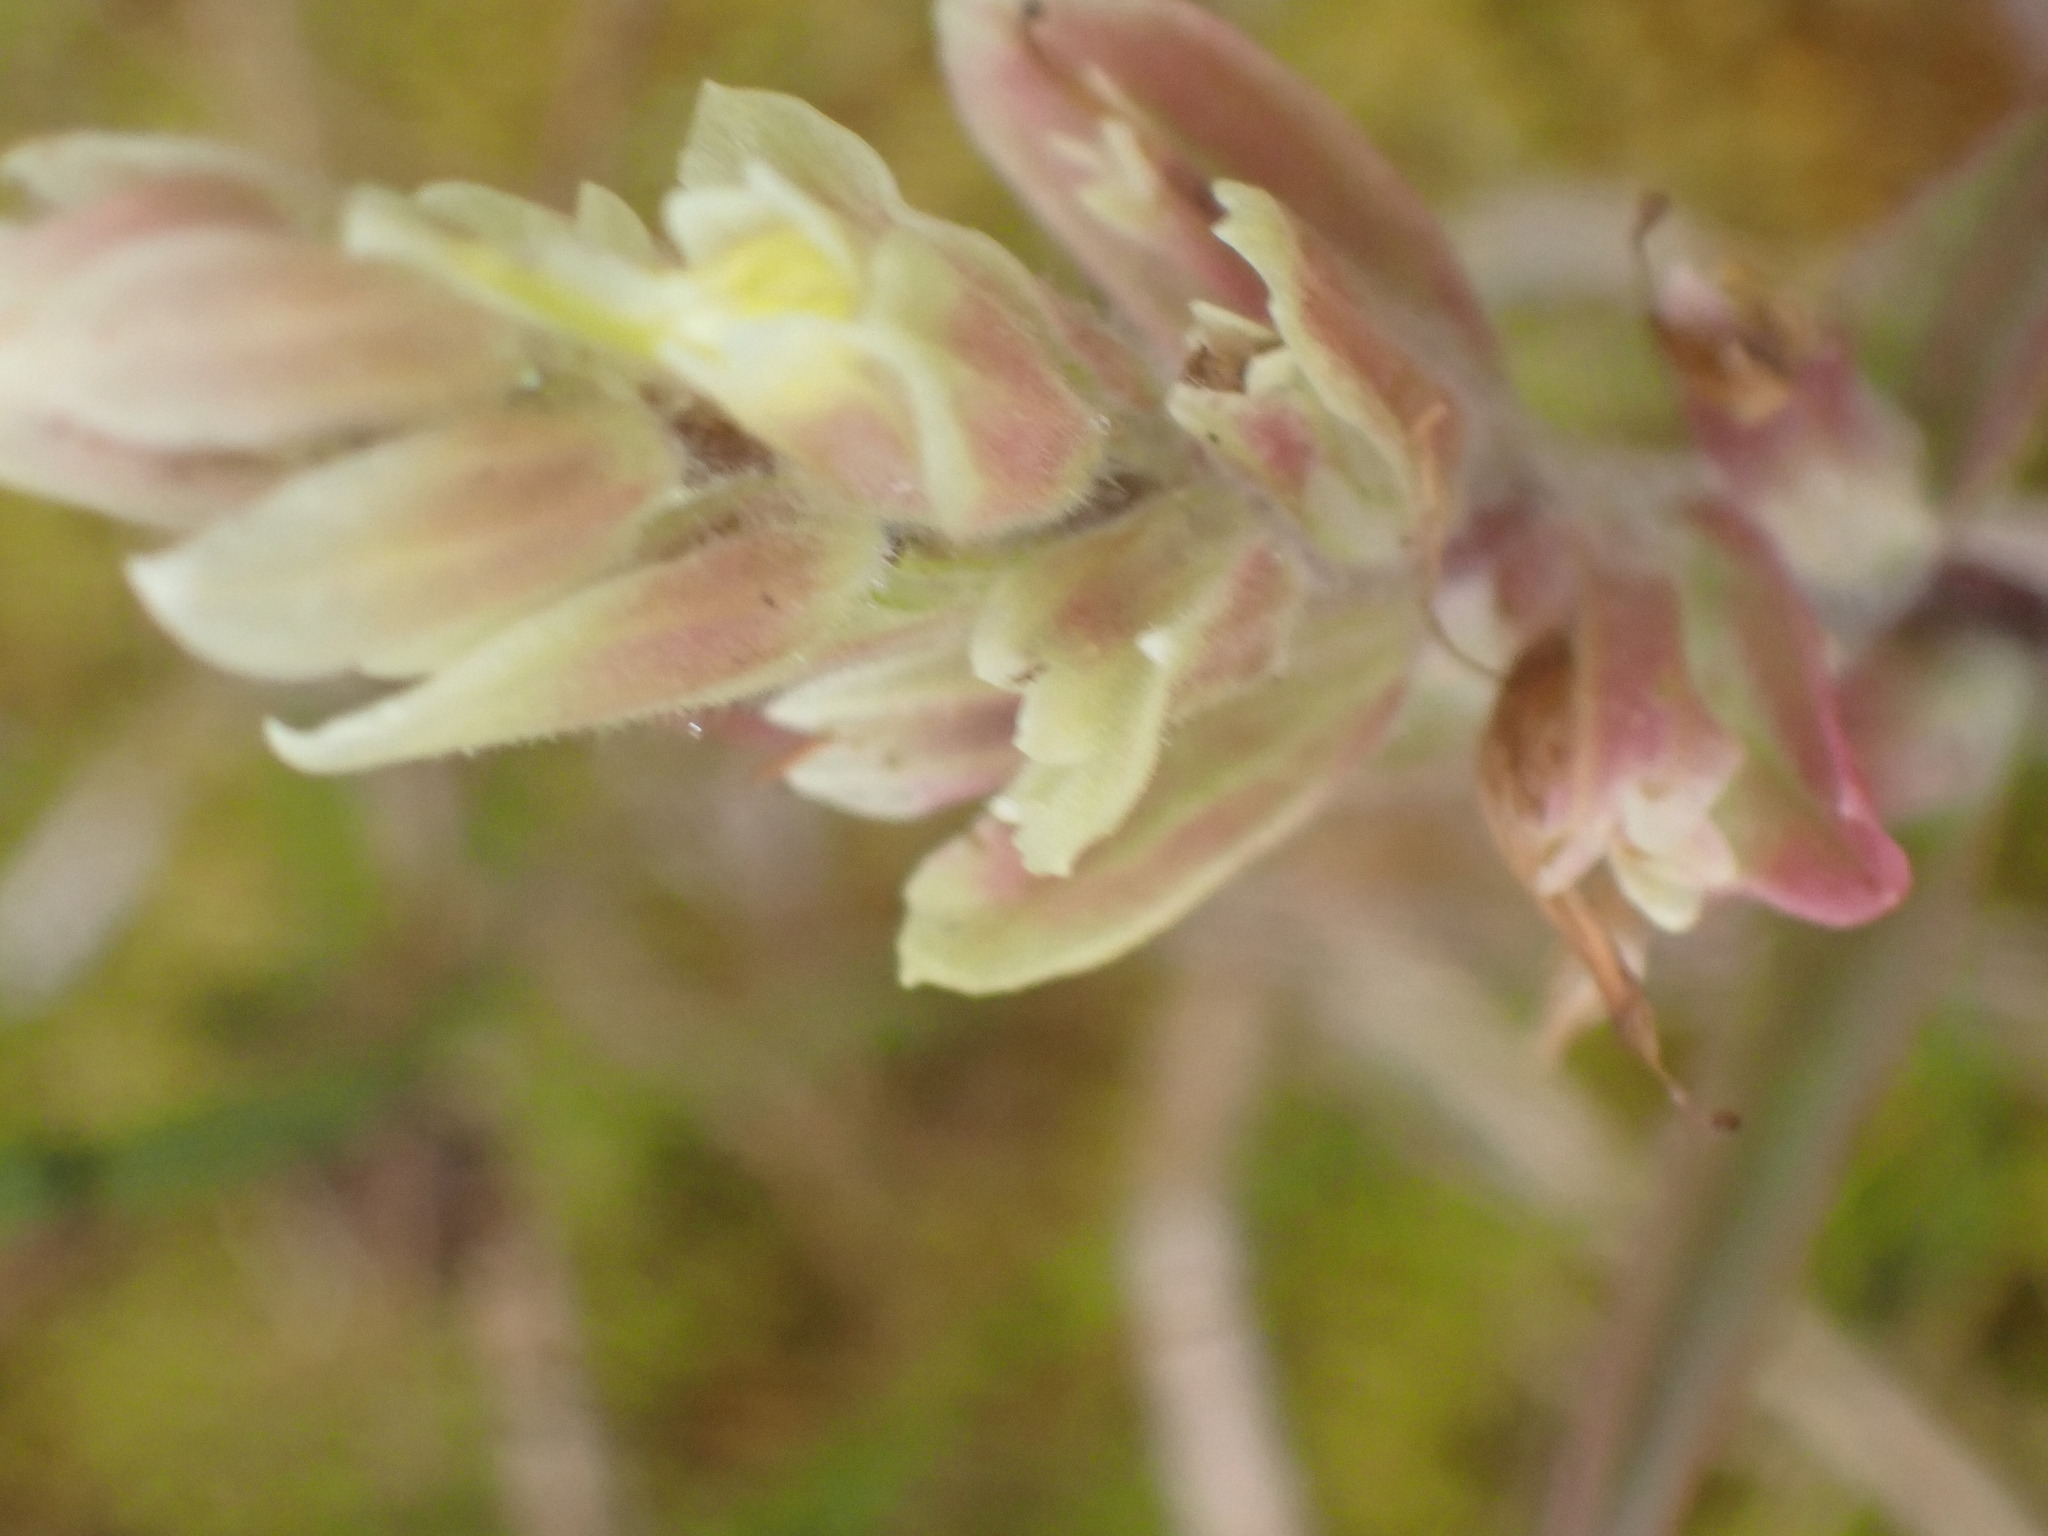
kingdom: Plantae
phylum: Tracheophyta
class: Magnoliopsida
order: Lamiales
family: Orobanchaceae
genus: Castilleja
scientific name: Castilleja occidentalis
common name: Western paintbrush
